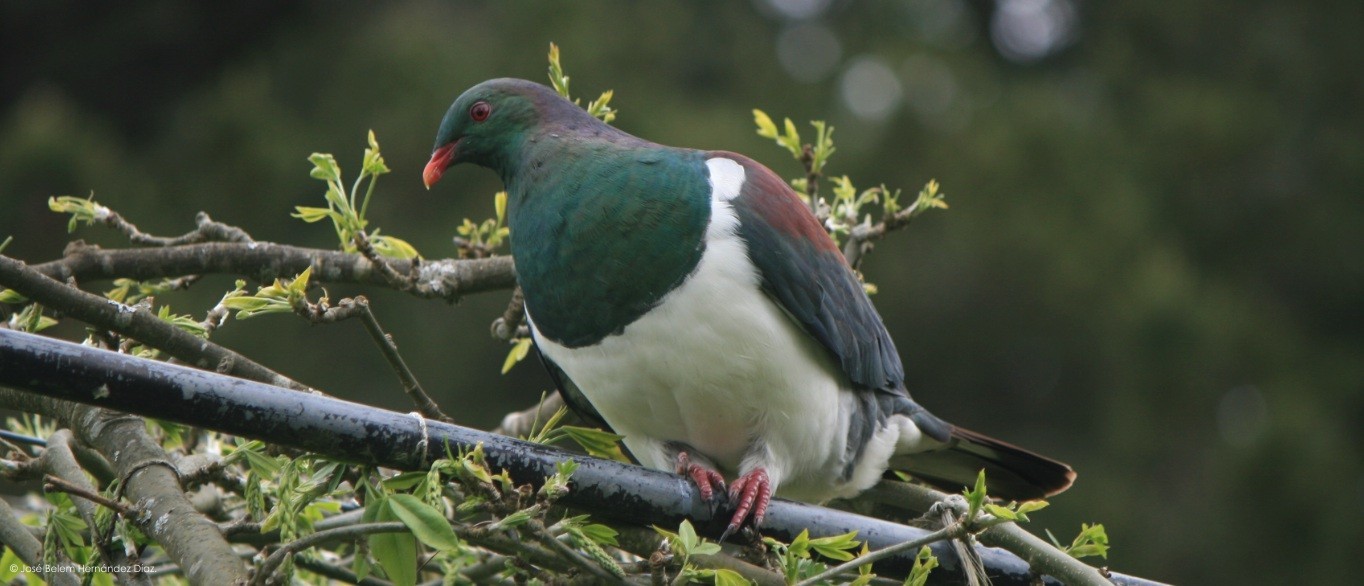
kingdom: Animalia
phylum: Chordata
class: Aves
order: Columbiformes
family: Columbidae
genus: Hemiphaga
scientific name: Hemiphaga novaeseelandiae
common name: New zealand pigeon
